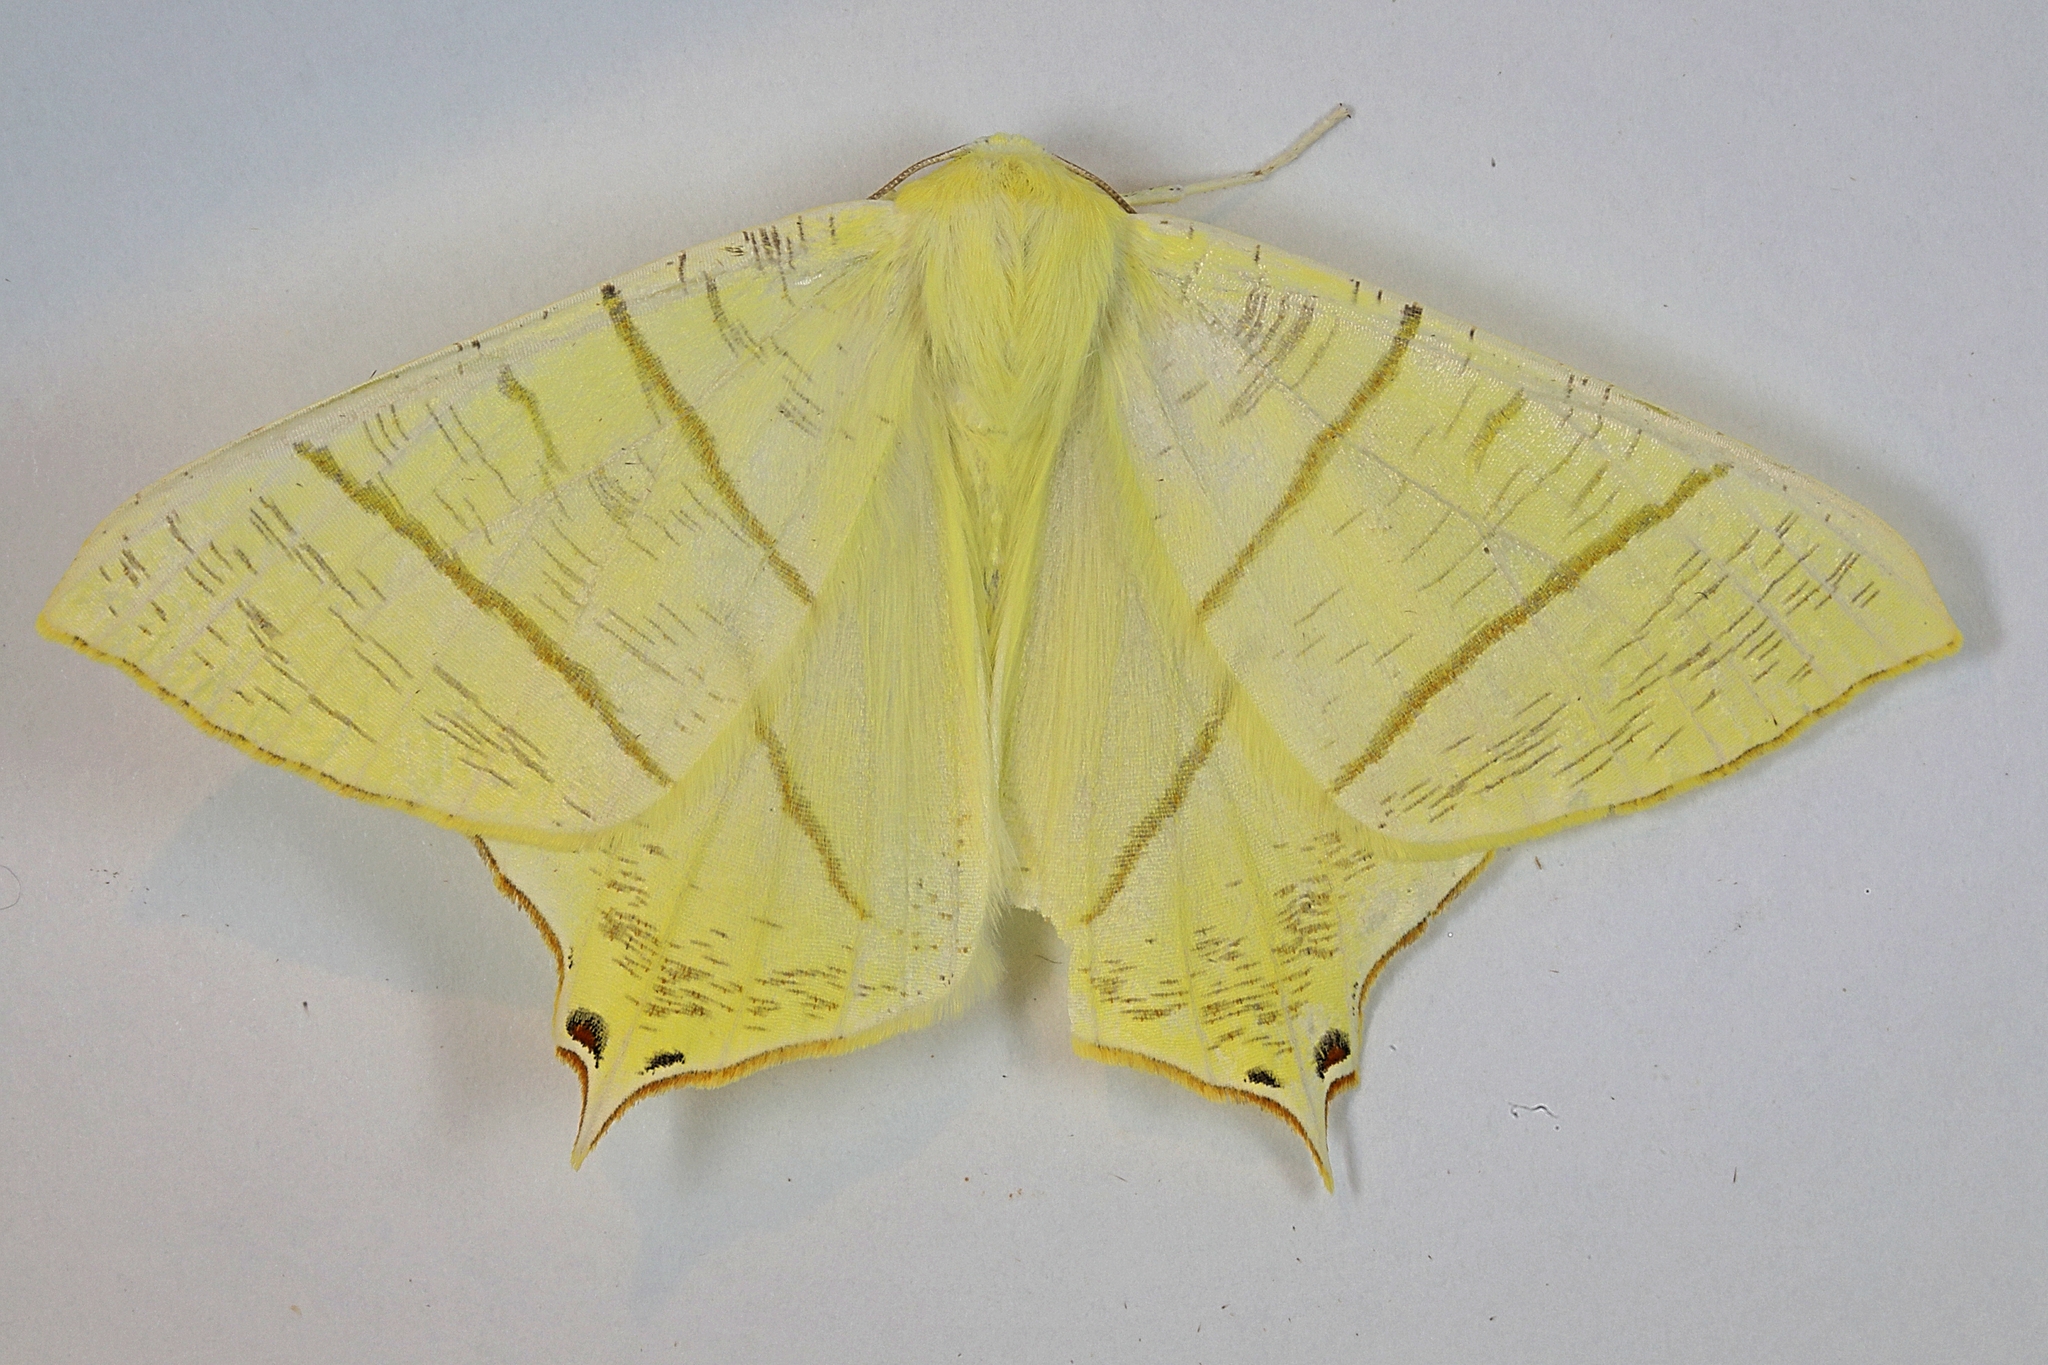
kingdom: Animalia
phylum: Arthropoda
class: Insecta
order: Lepidoptera
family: Geometridae
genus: Ourapteryx
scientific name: Ourapteryx sambucaria
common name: Swallow-tailed moth
